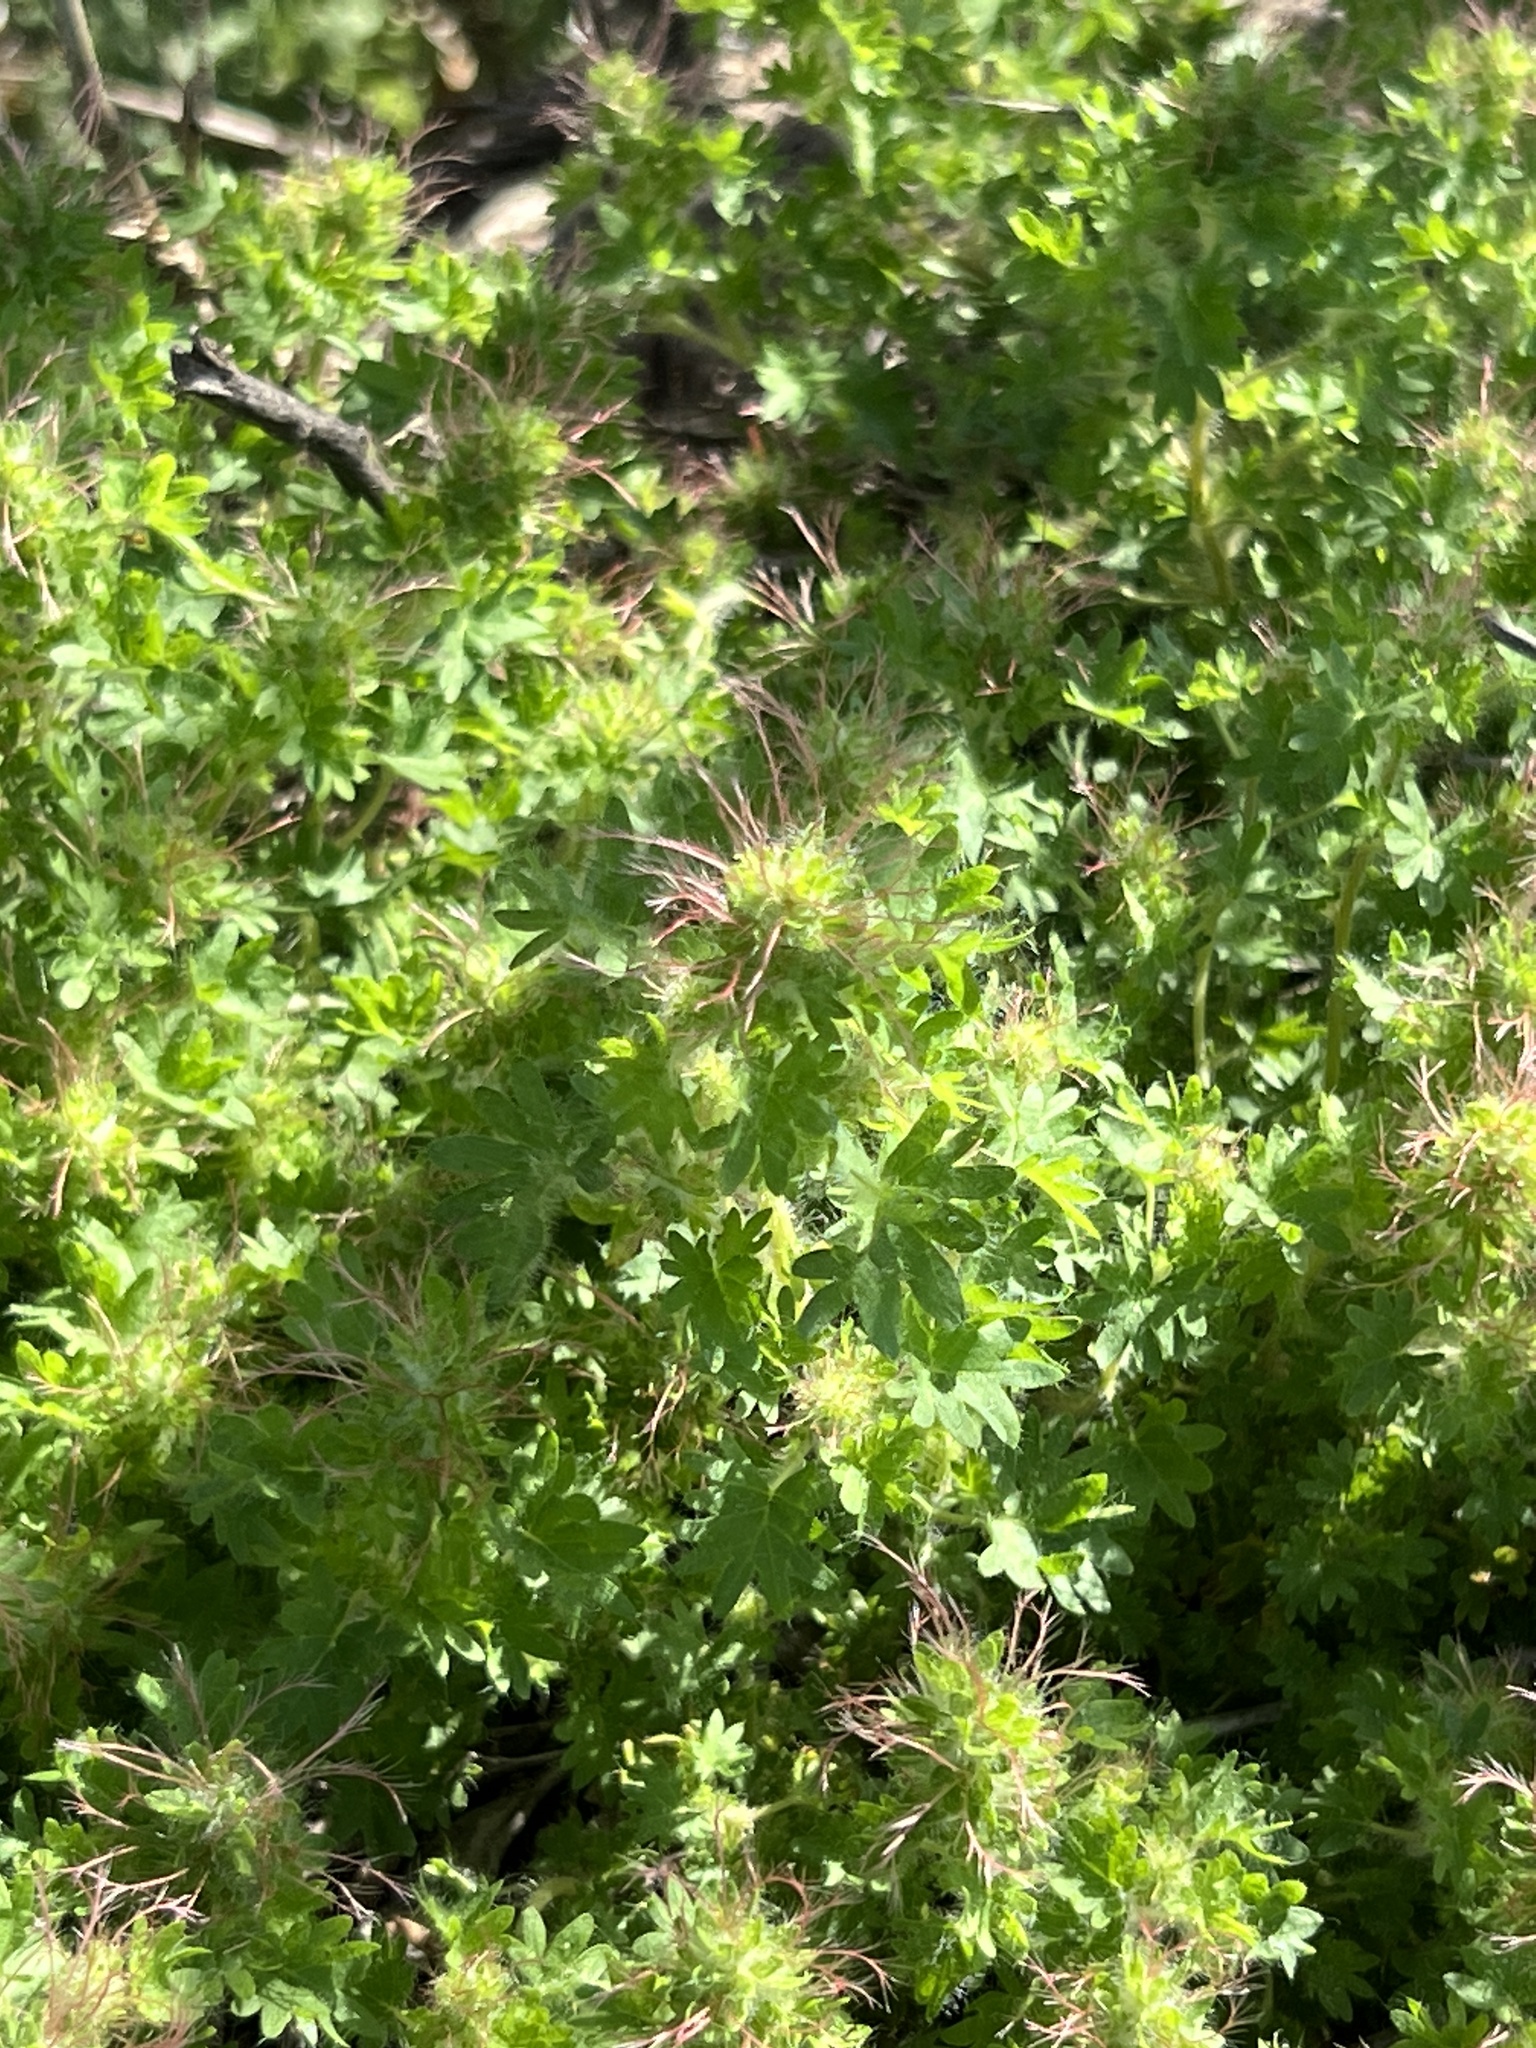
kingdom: Plantae
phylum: Tracheophyta
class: Magnoliopsida
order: Malpighiales
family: Euphorbiaceae
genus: Acalypha
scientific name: Acalypha radians
